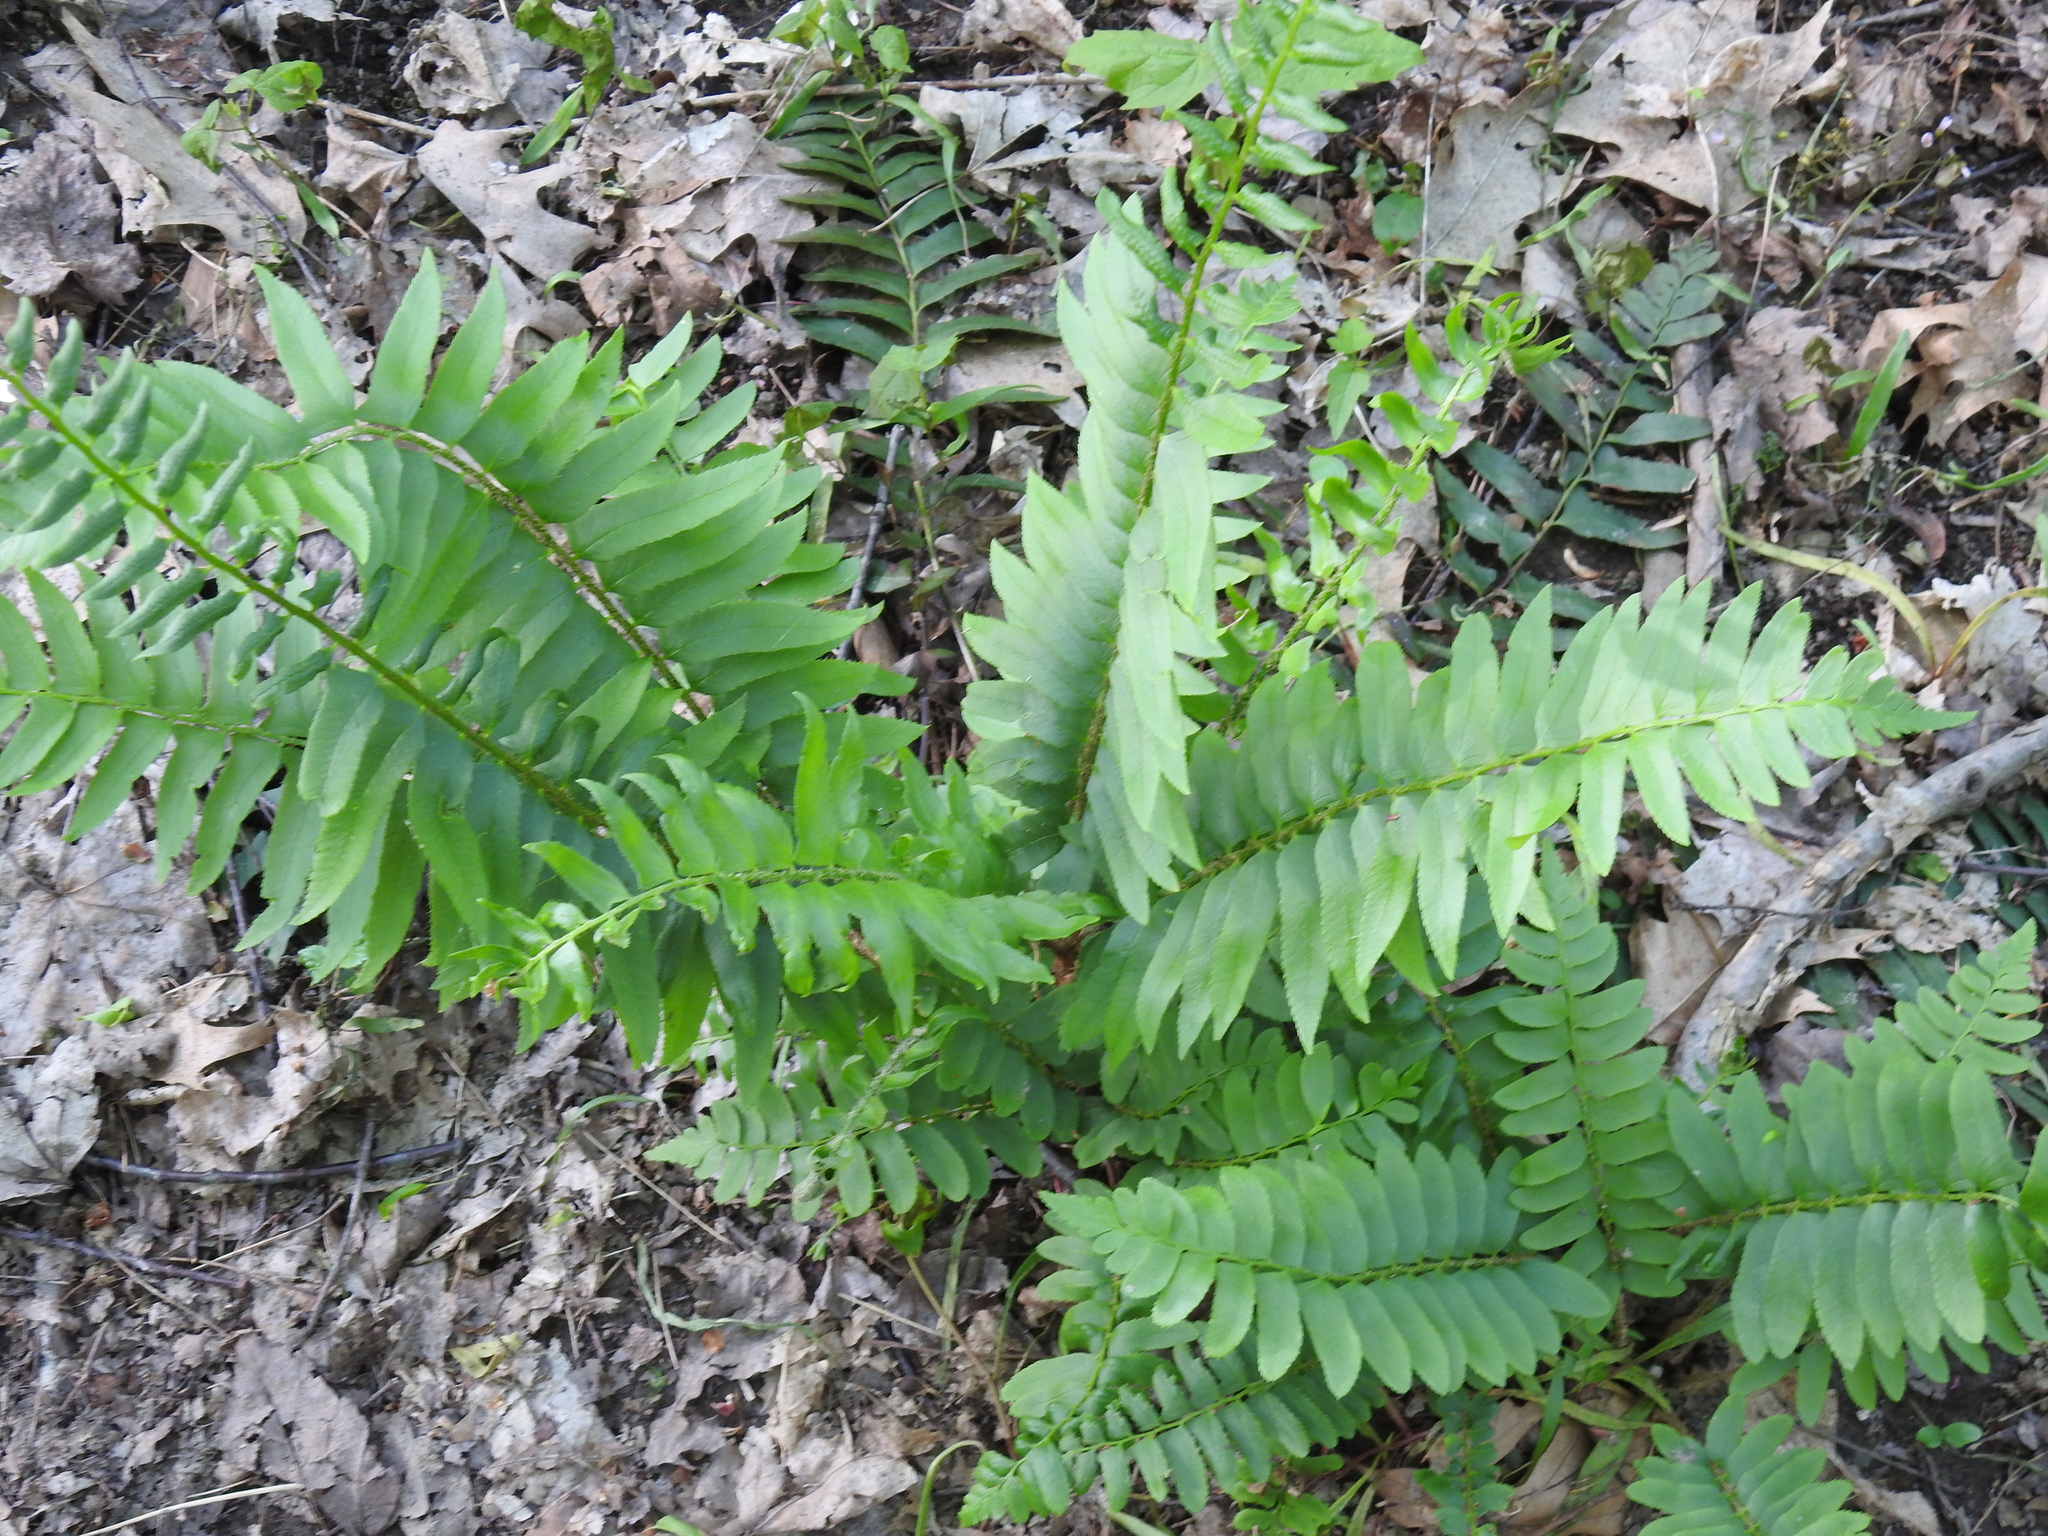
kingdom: Plantae
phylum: Tracheophyta
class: Polypodiopsida
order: Polypodiales
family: Dryopteridaceae
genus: Polystichum
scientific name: Polystichum acrostichoides
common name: Christmas fern
